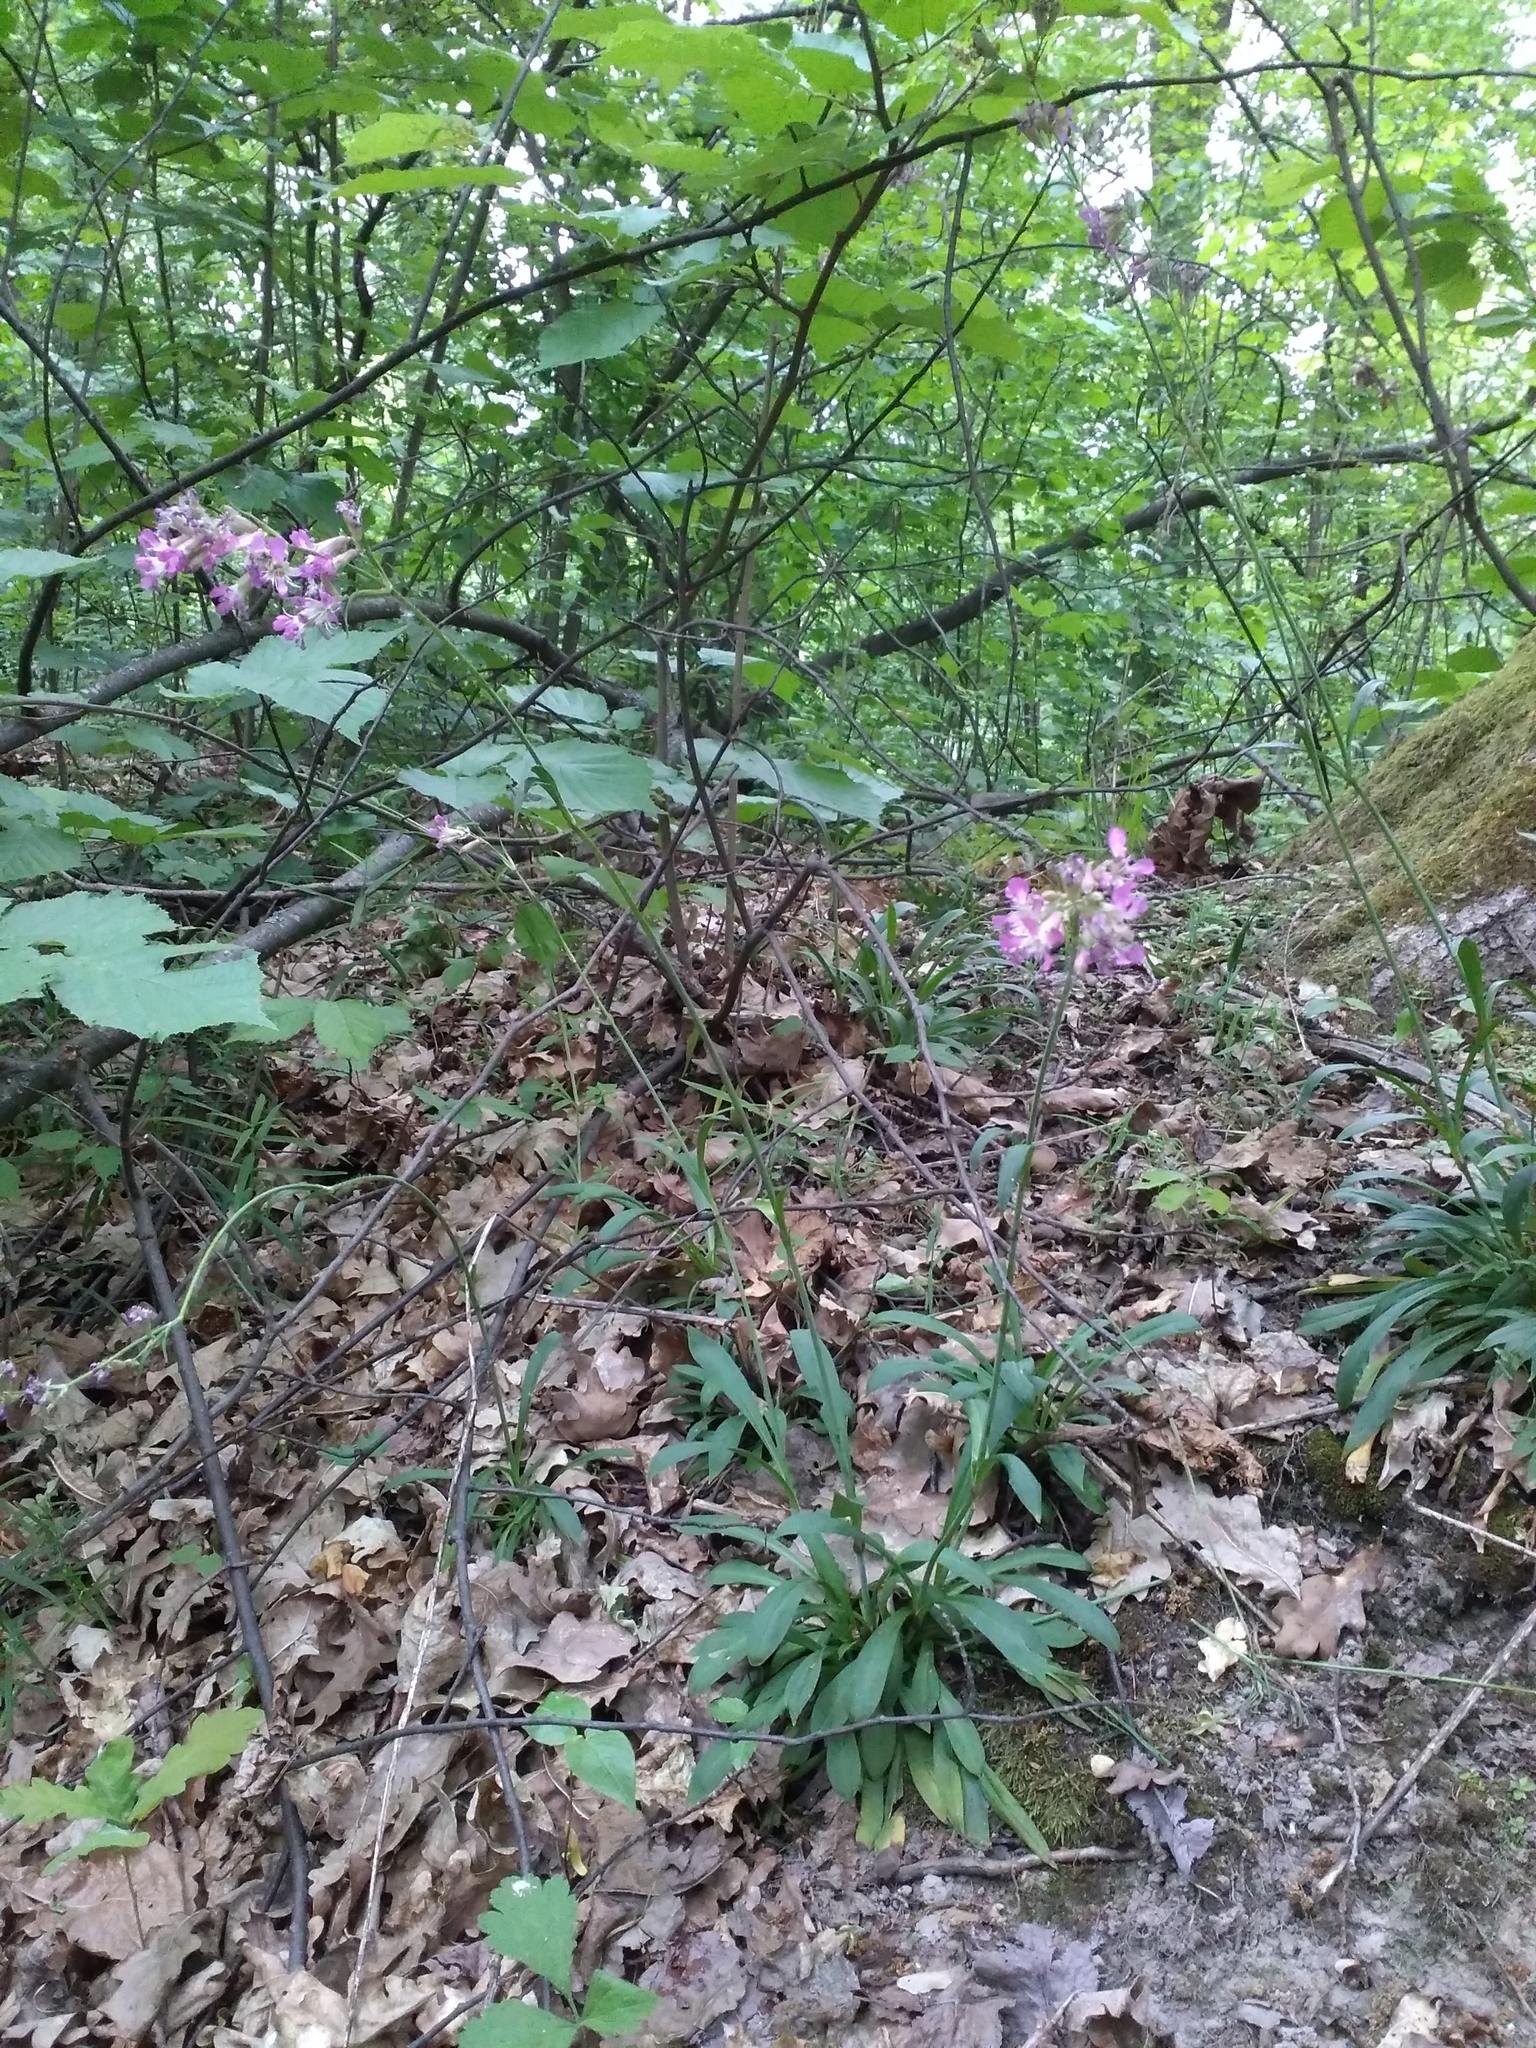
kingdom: Plantae
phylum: Tracheophyta
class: Magnoliopsida
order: Caryophyllales
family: Caryophyllaceae
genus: Viscaria
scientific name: Viscaria vulgaris
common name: Clammy campion
